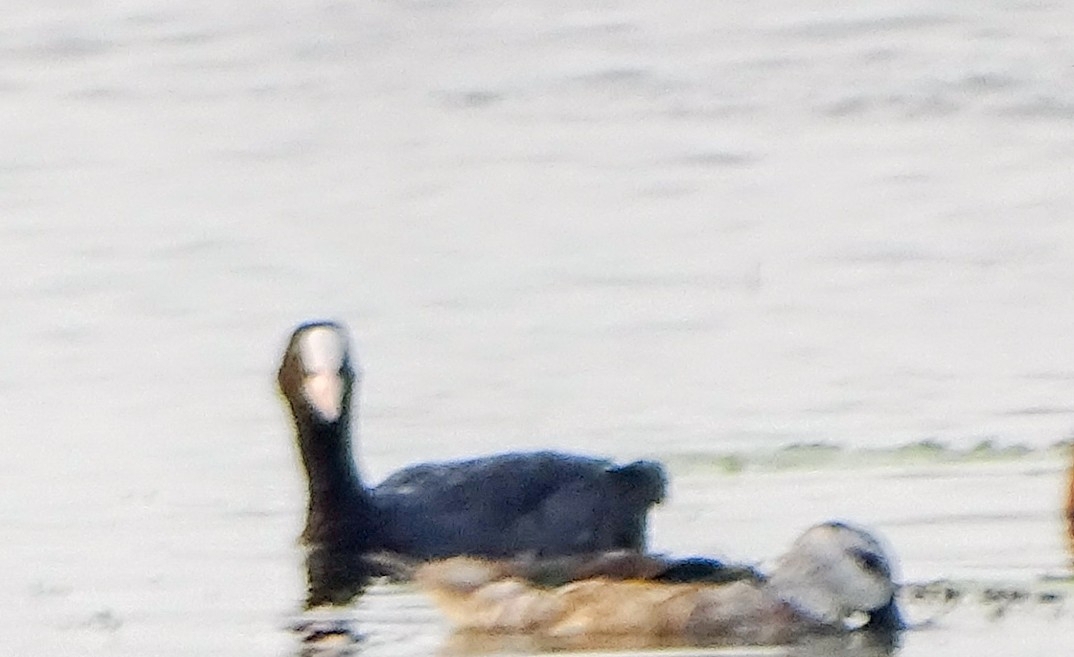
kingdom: Animalia
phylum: Chordata
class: Aves
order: Gruiformes
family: Rallidae
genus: Fulica
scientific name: Fulica atra
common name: Eurasian coot
